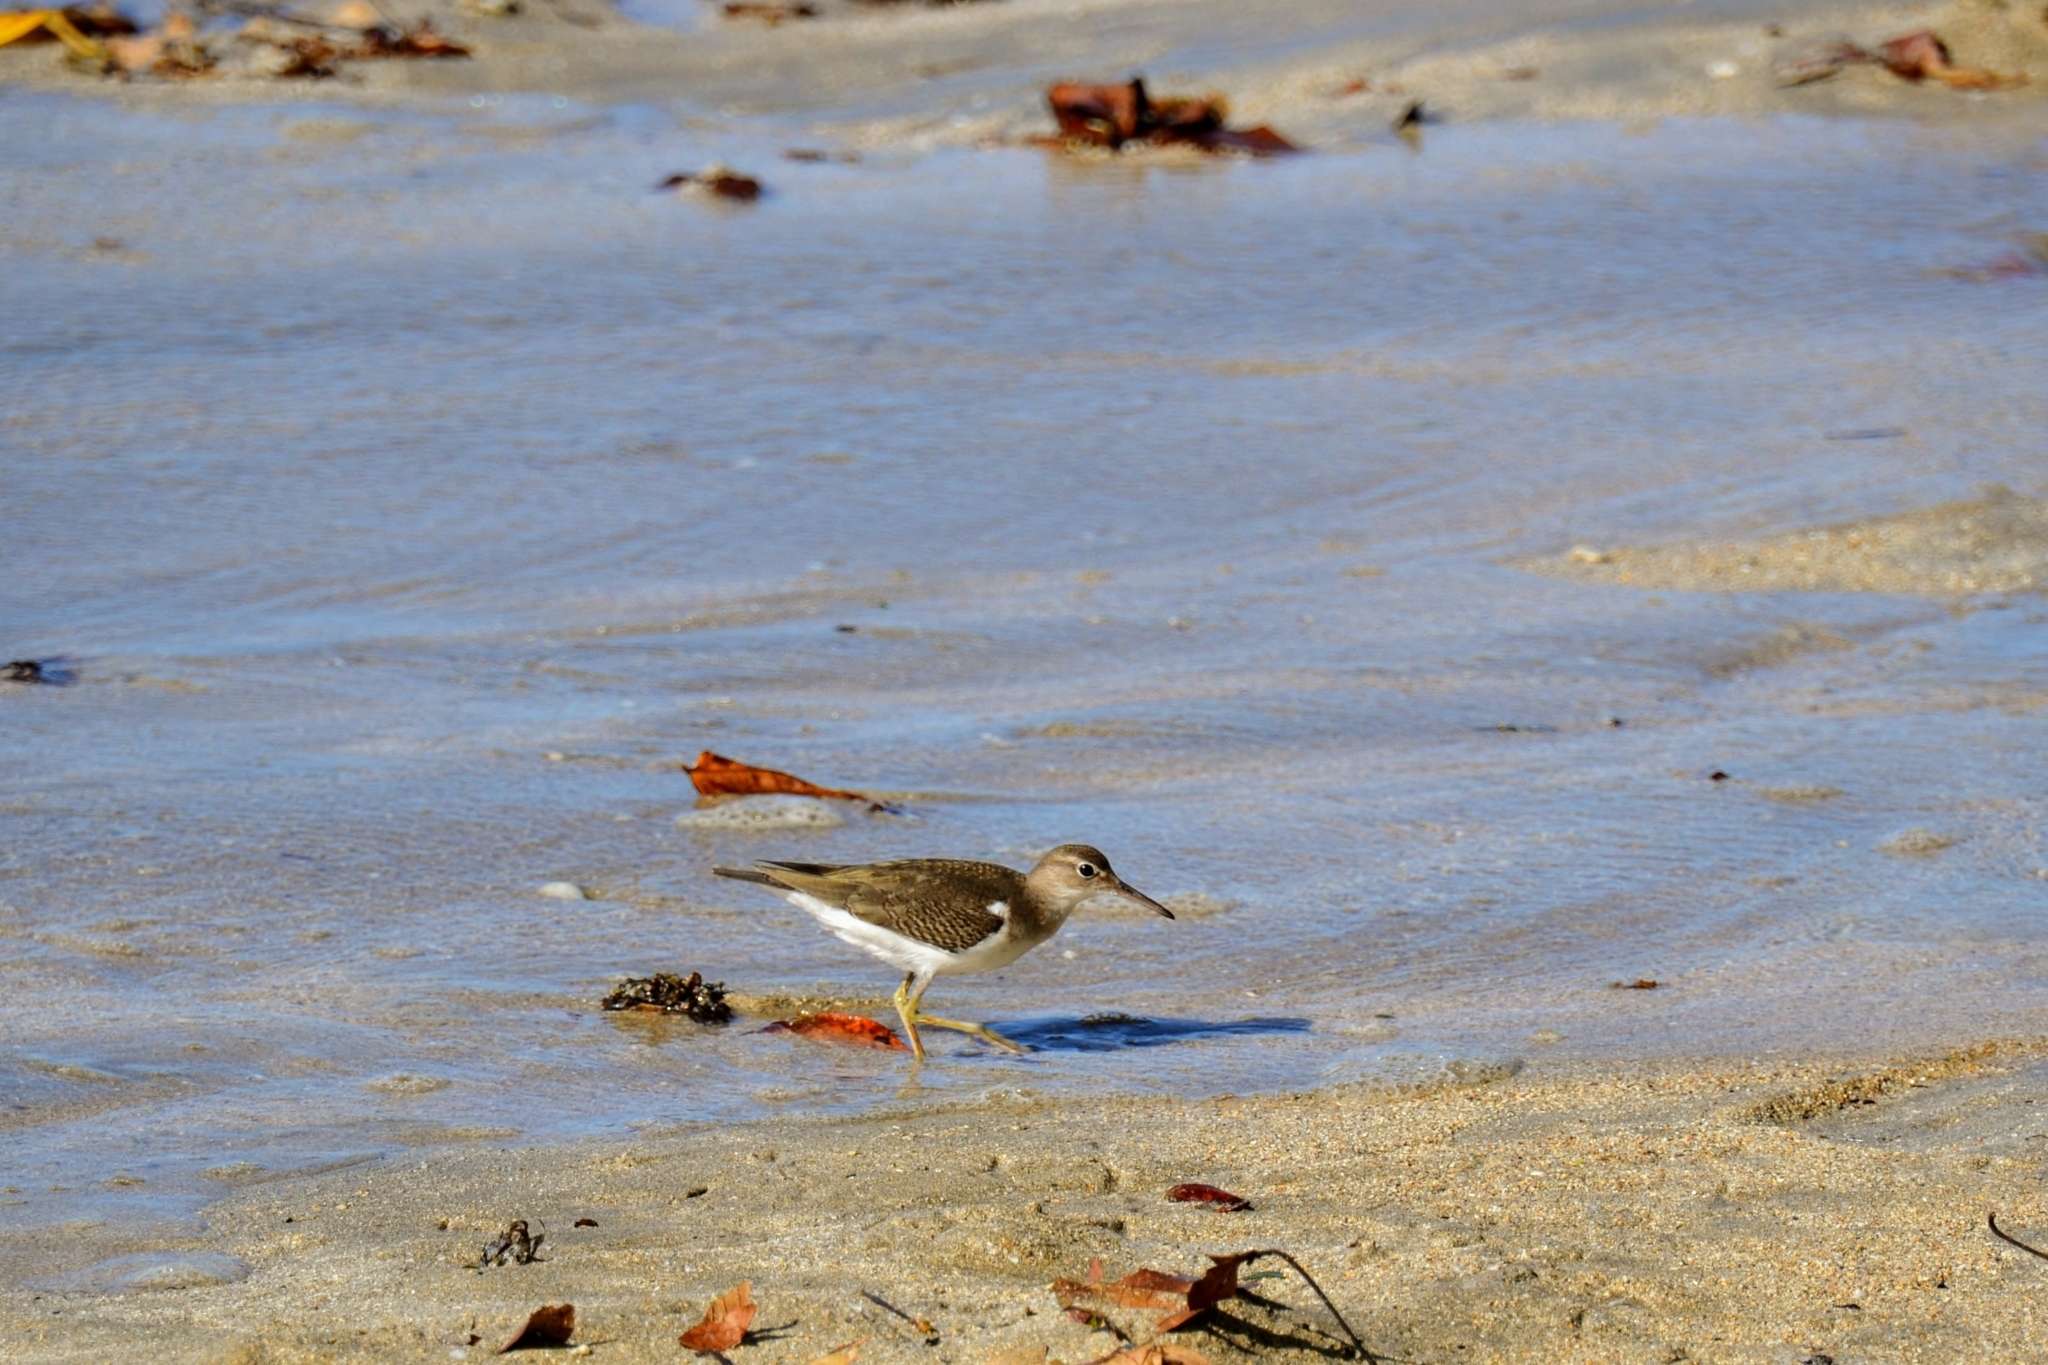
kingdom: Animalia
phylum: Chordata
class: Aves
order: Charadriiformes
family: Scolopacidae
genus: Actitis
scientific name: Actitis macularius
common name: Spotted sandpiper
